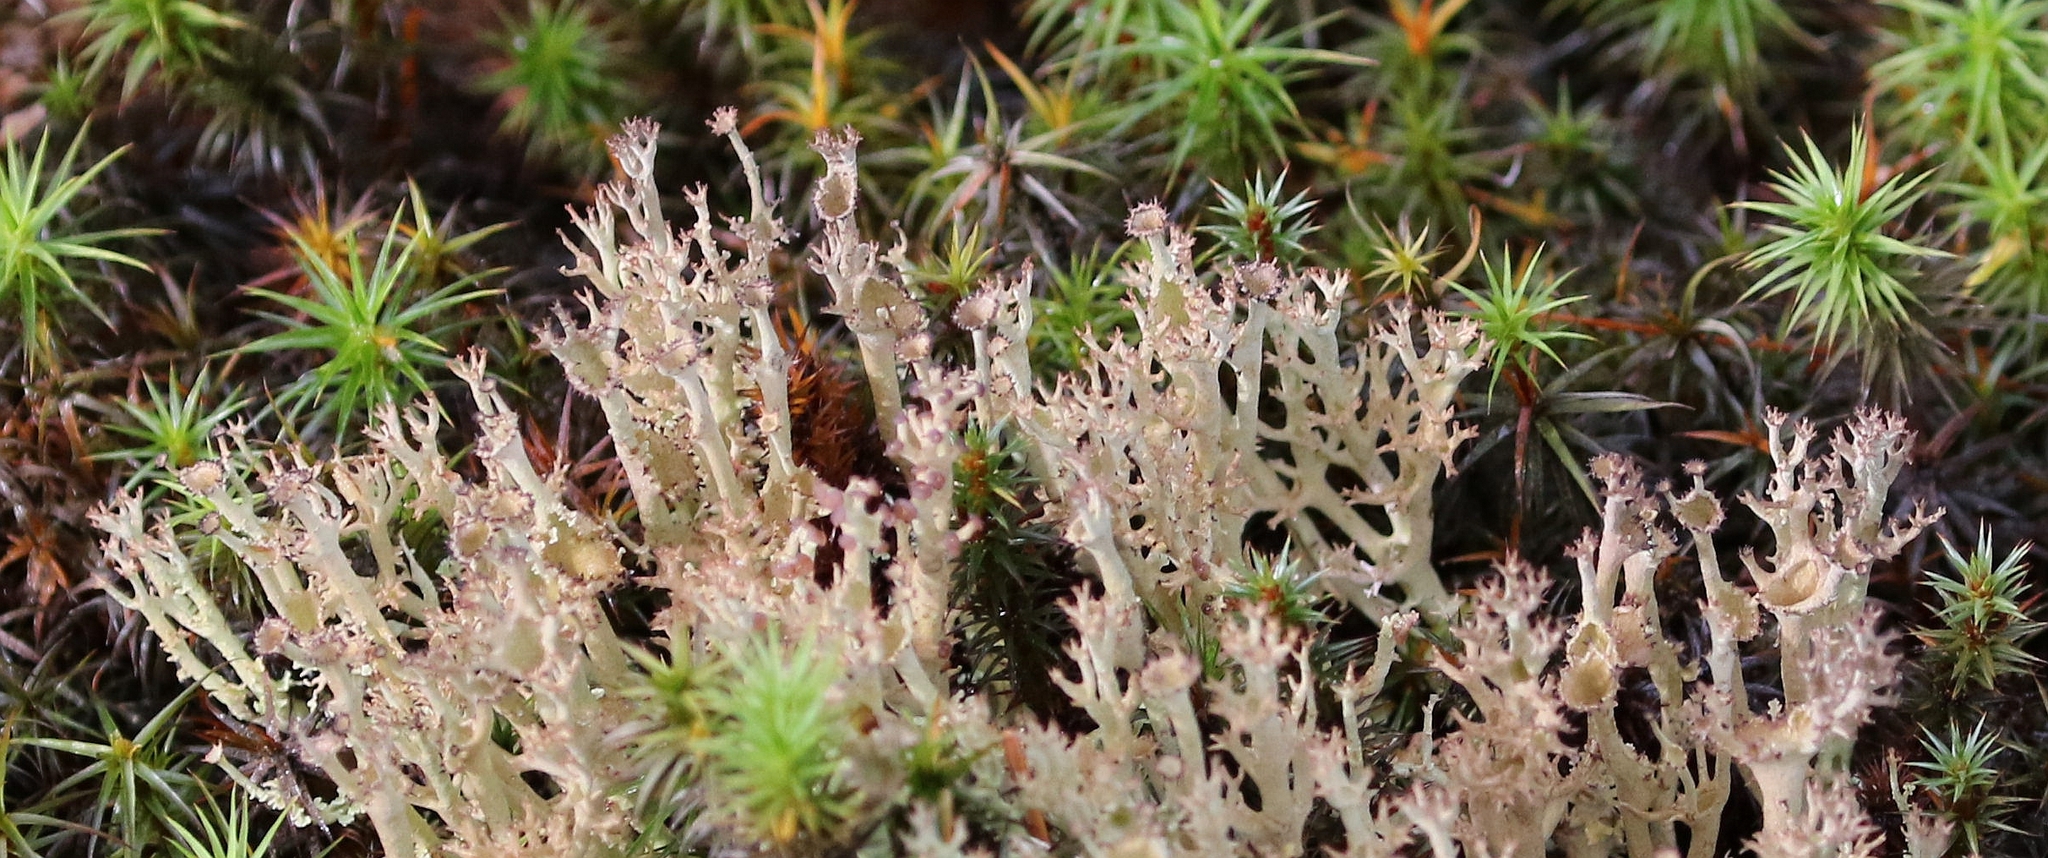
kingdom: Fungi
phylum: Ascomycota
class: Lecanoromycetes
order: Lecanorales
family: Cladoniaceae
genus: Cladonia
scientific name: Cladonia crispata
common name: Organ-pipe lichen
